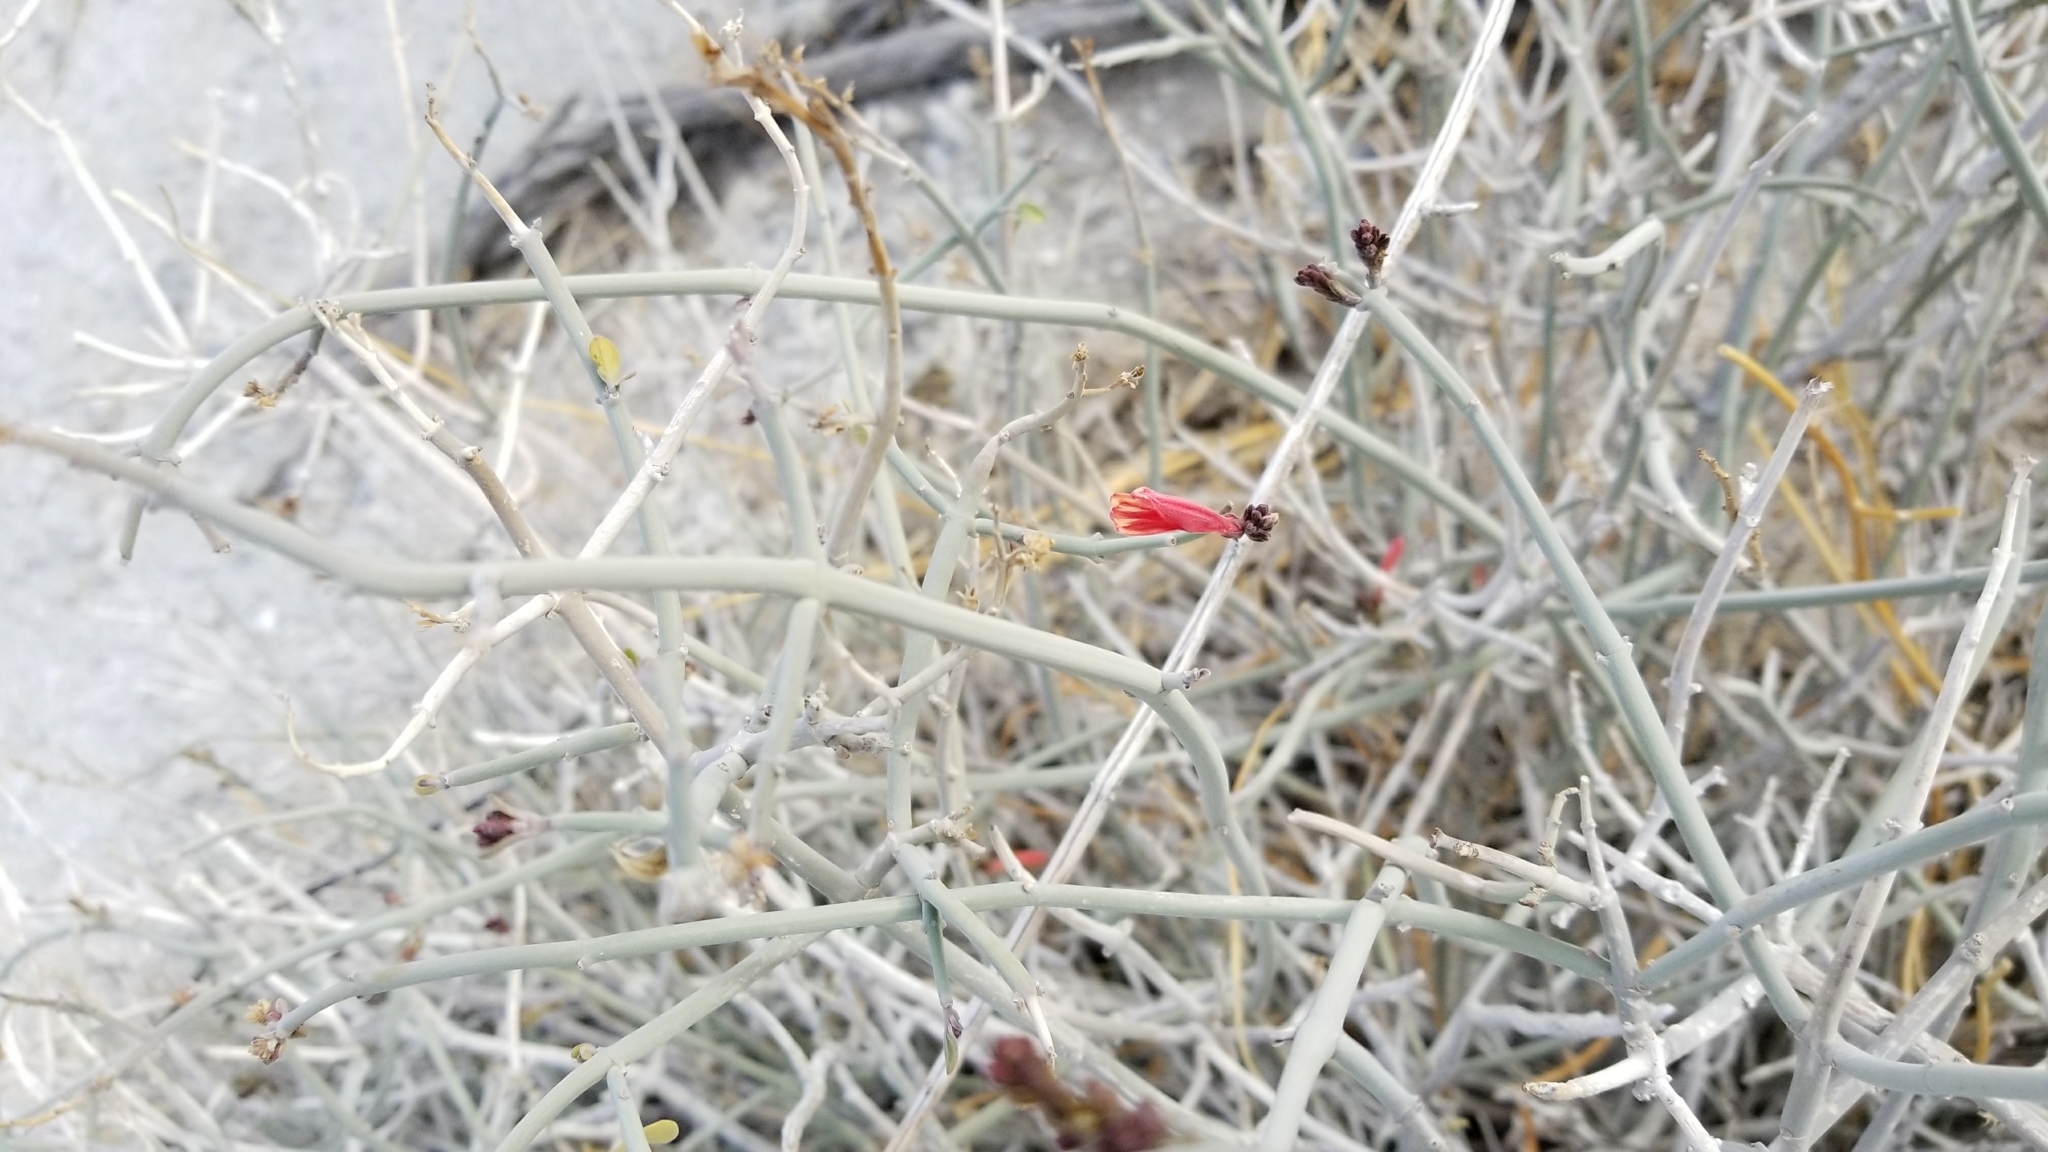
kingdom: Plantae
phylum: Tracheophyta
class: Magnoliopsida
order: Lamiales
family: Acanthaceae
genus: Justicia
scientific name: Justicia californica
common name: Chuparosa-honeysuckle
